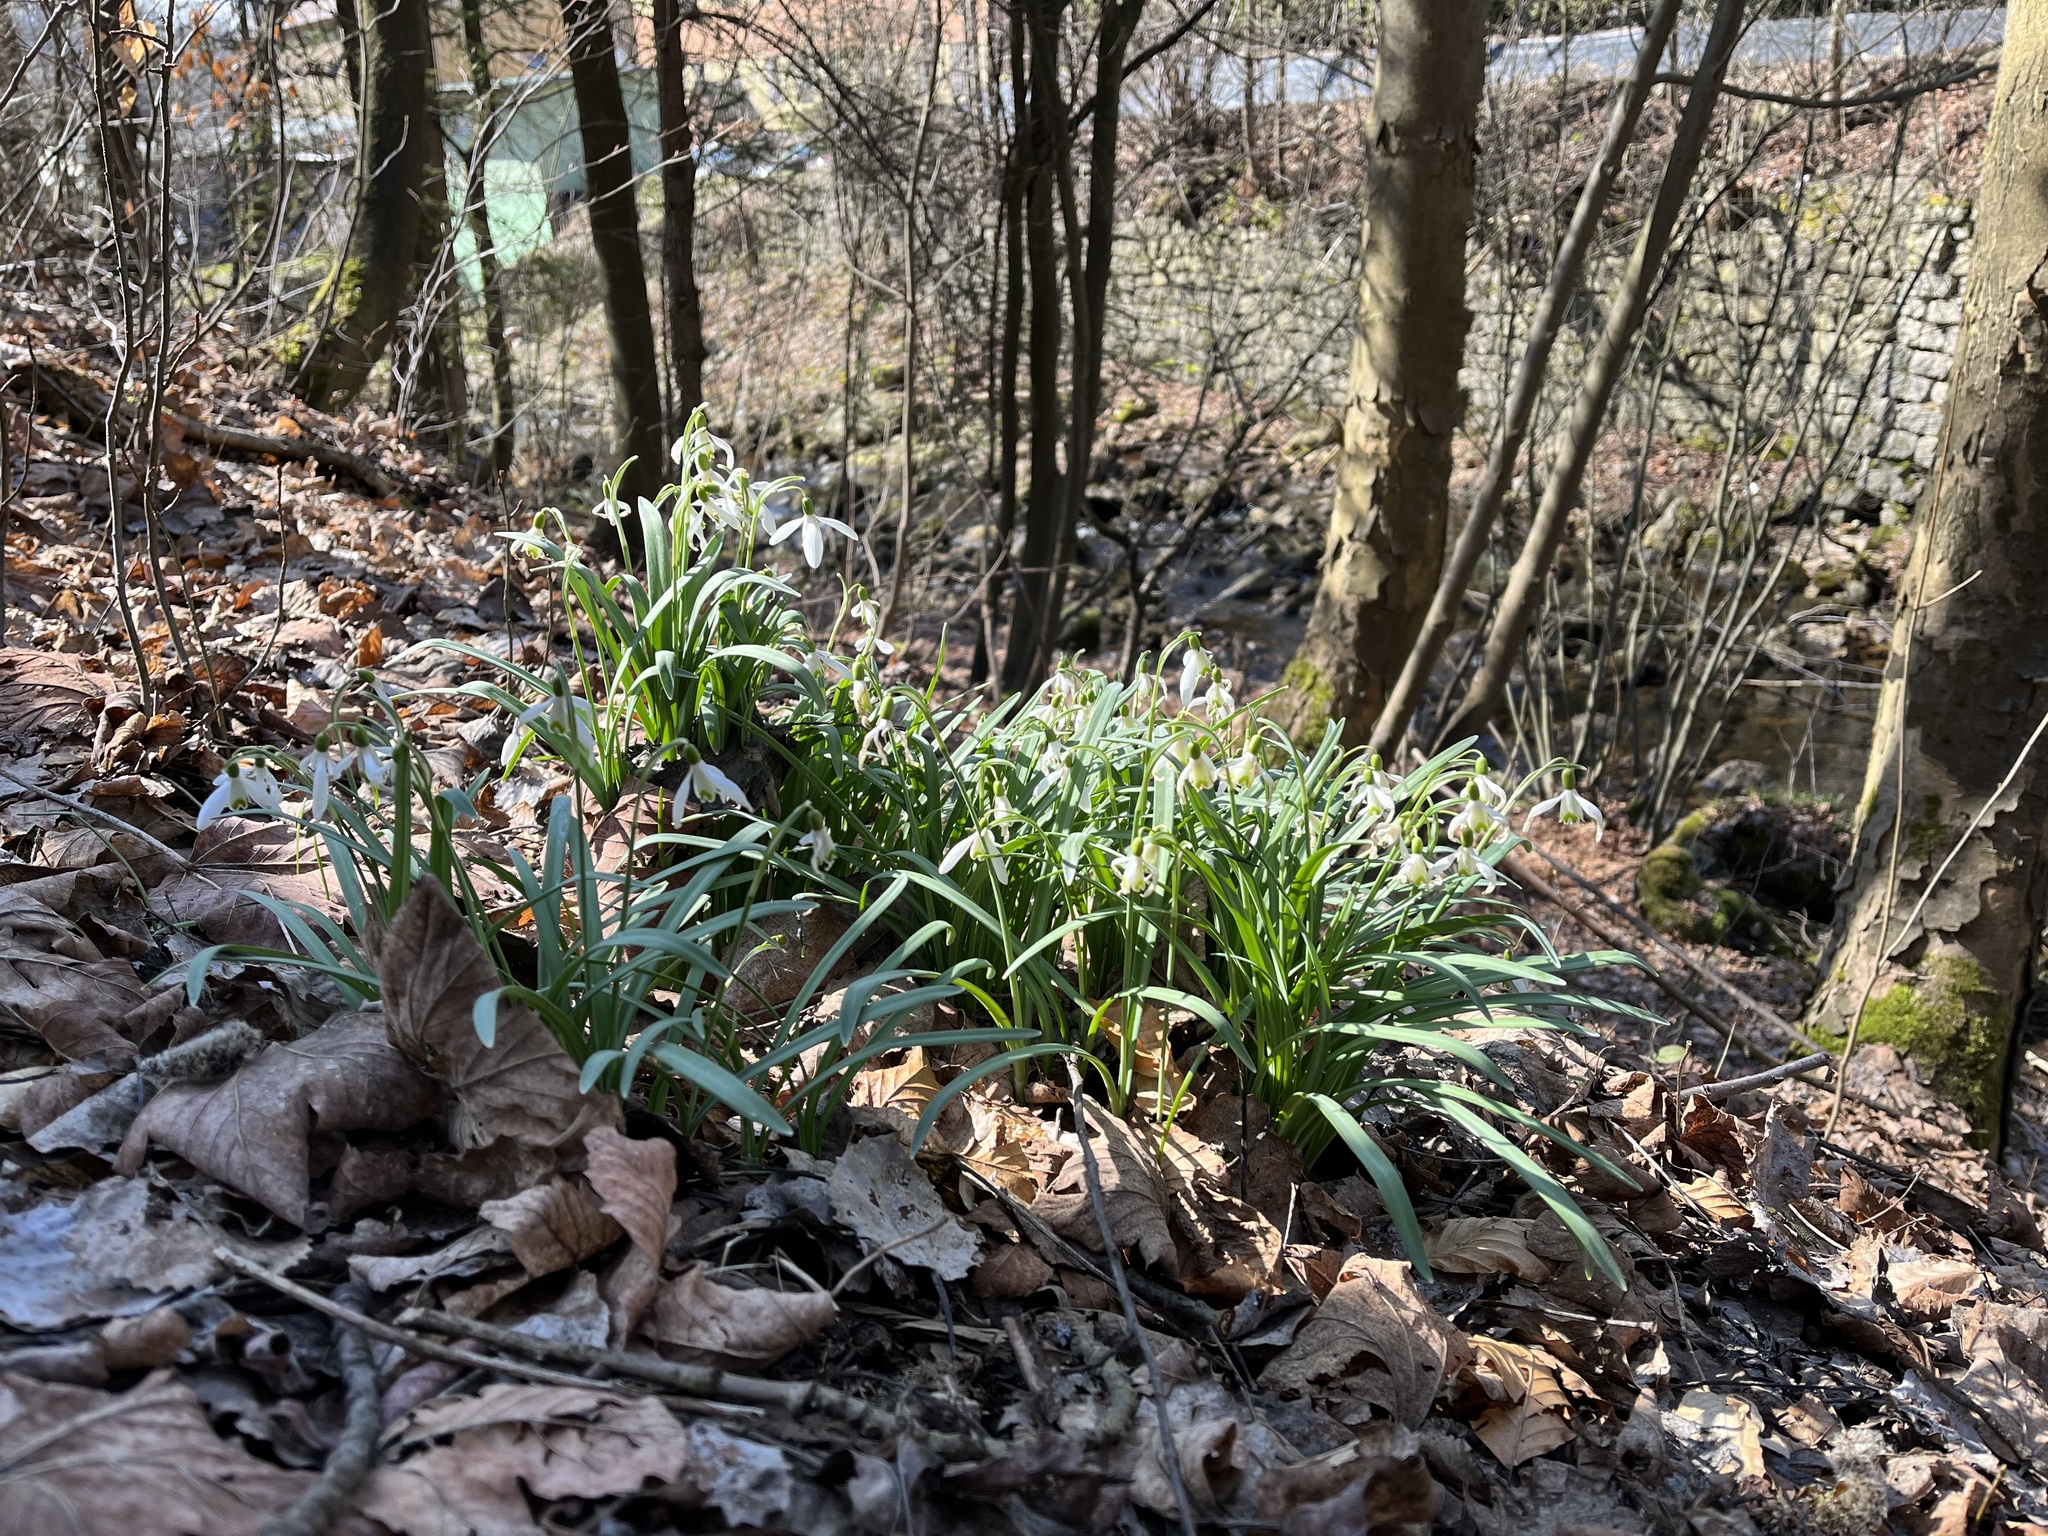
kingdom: Plantae
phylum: Tracheophyta
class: Liliopsida
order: Asparagales
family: Amaryllidaceae
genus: Galanthus
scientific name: Galanthus nivalis
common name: Snowdrop
